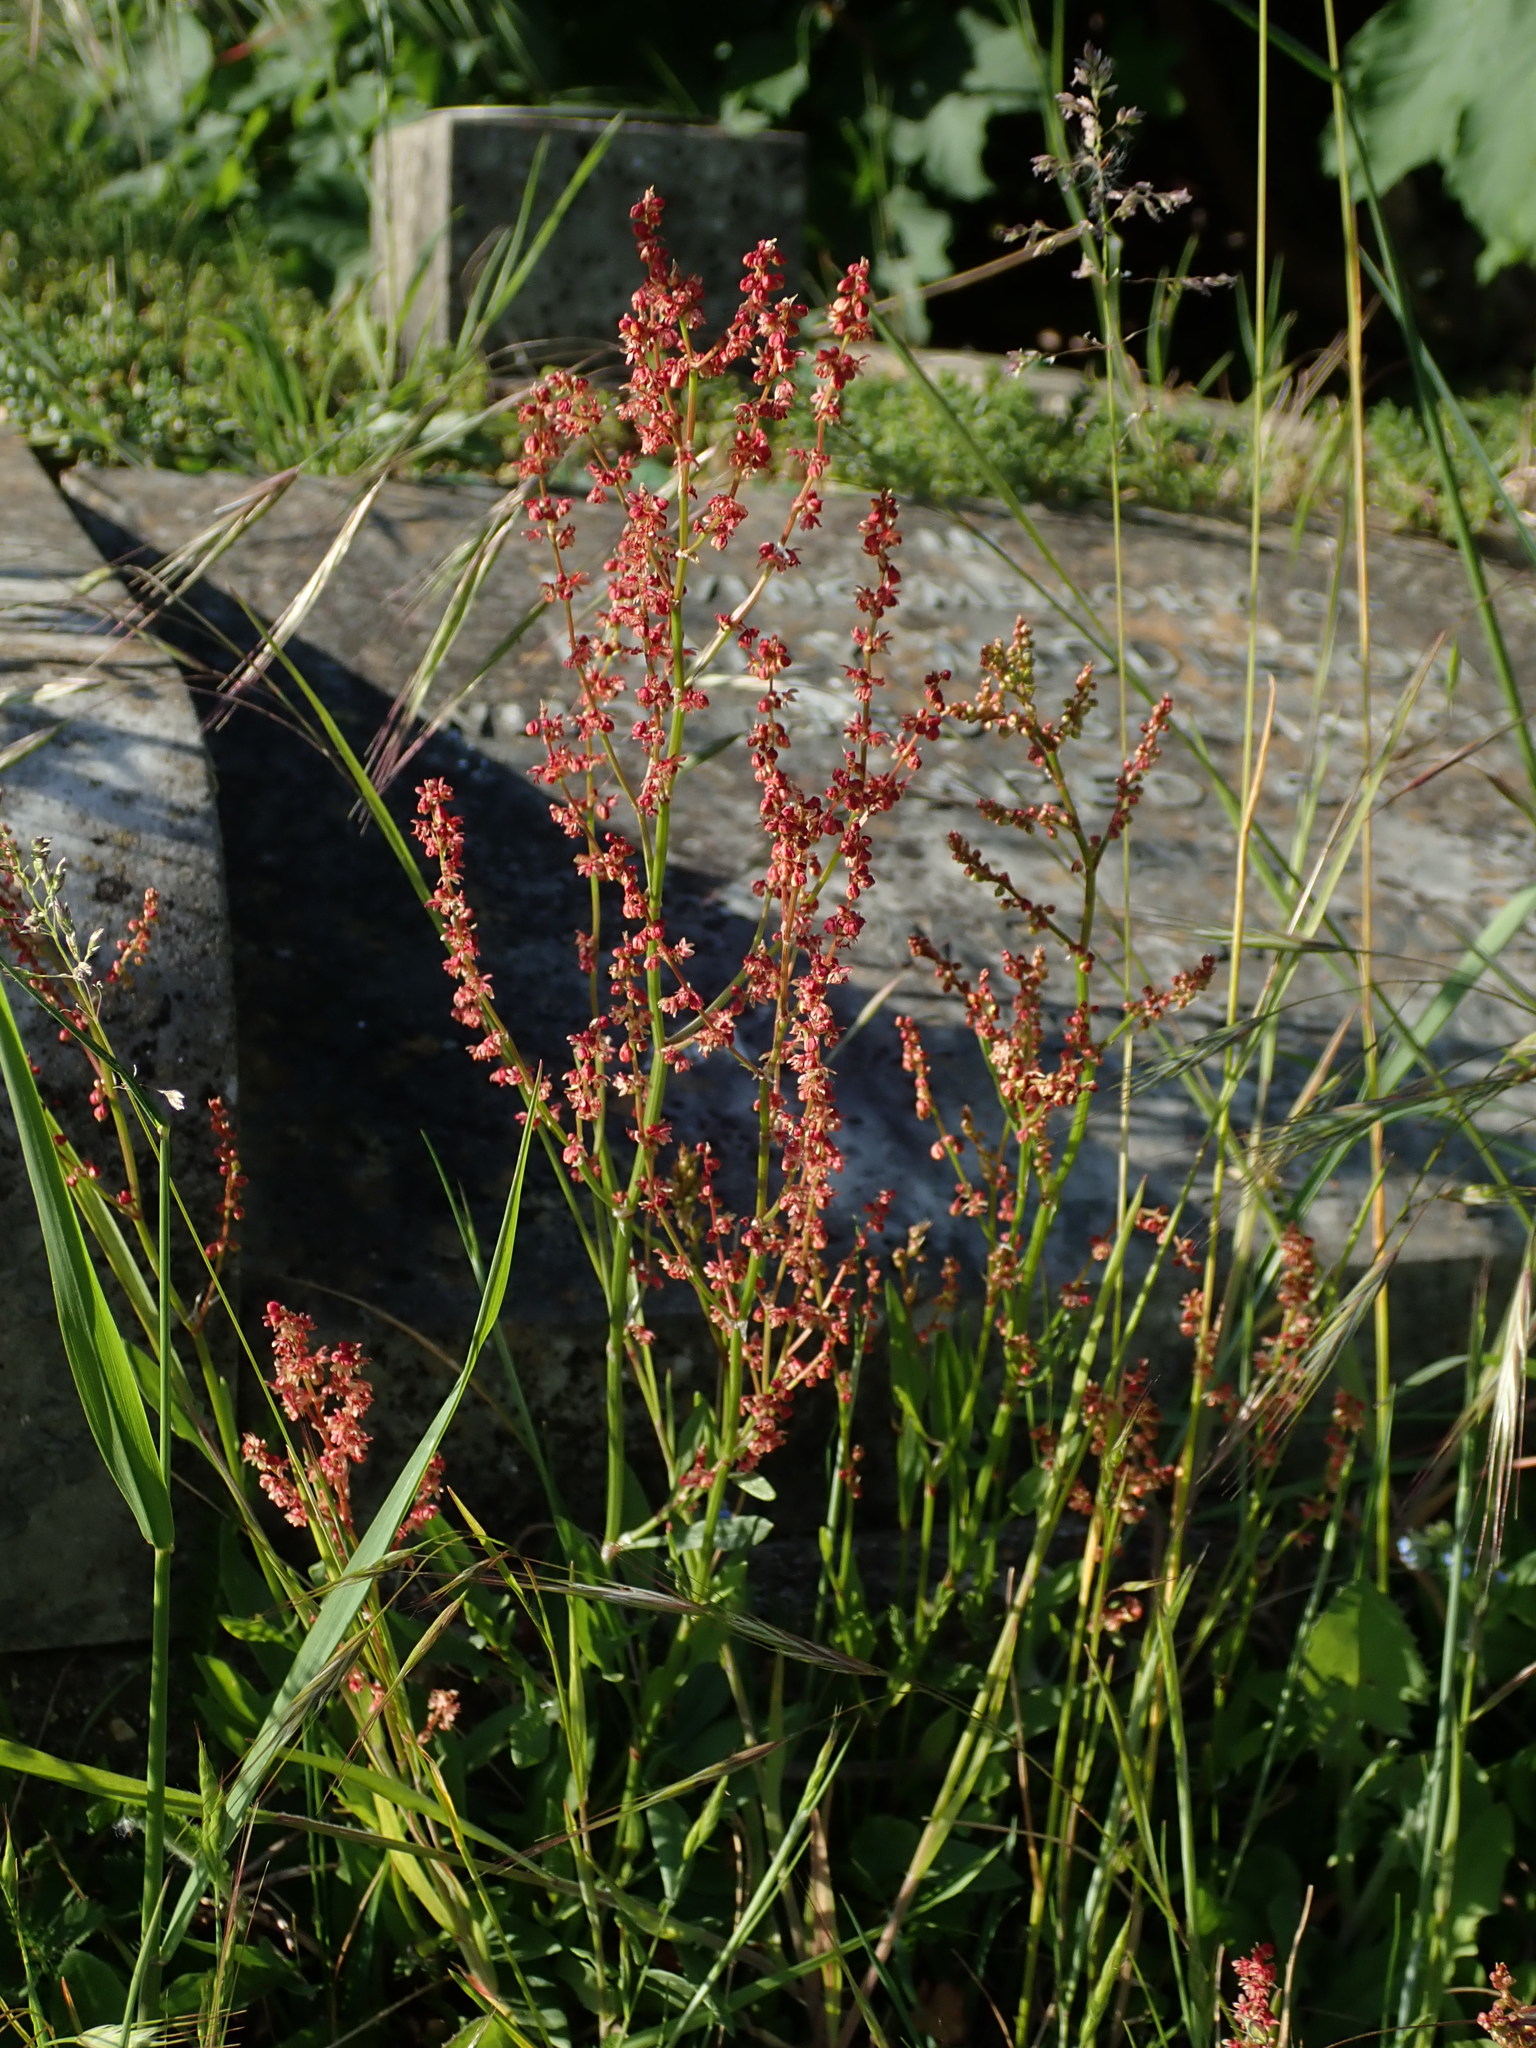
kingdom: Plantae
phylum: Tracheophyta
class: Magnoliopsida
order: Caryophyllales
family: Polygonaceae
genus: Rumex
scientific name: Rumex acetosella
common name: Common sheep sorrel
